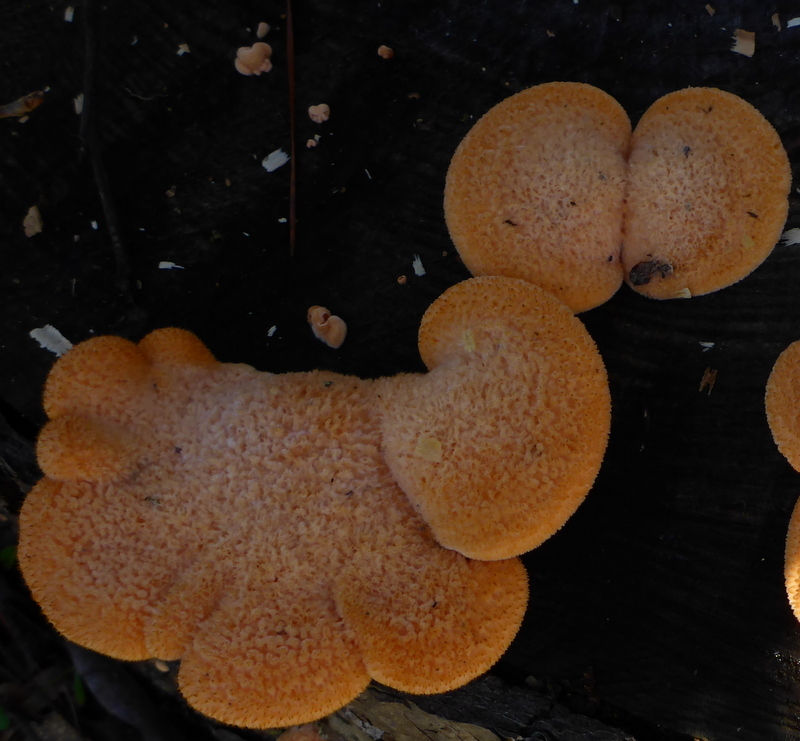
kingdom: Fungi
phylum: Basidiomycota
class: Agaricomycetes
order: Agaricales
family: Phyllotopsidaceae
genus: Phyllotopsis
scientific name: Phyllotopsis nidulans
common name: Orange mock oyster
